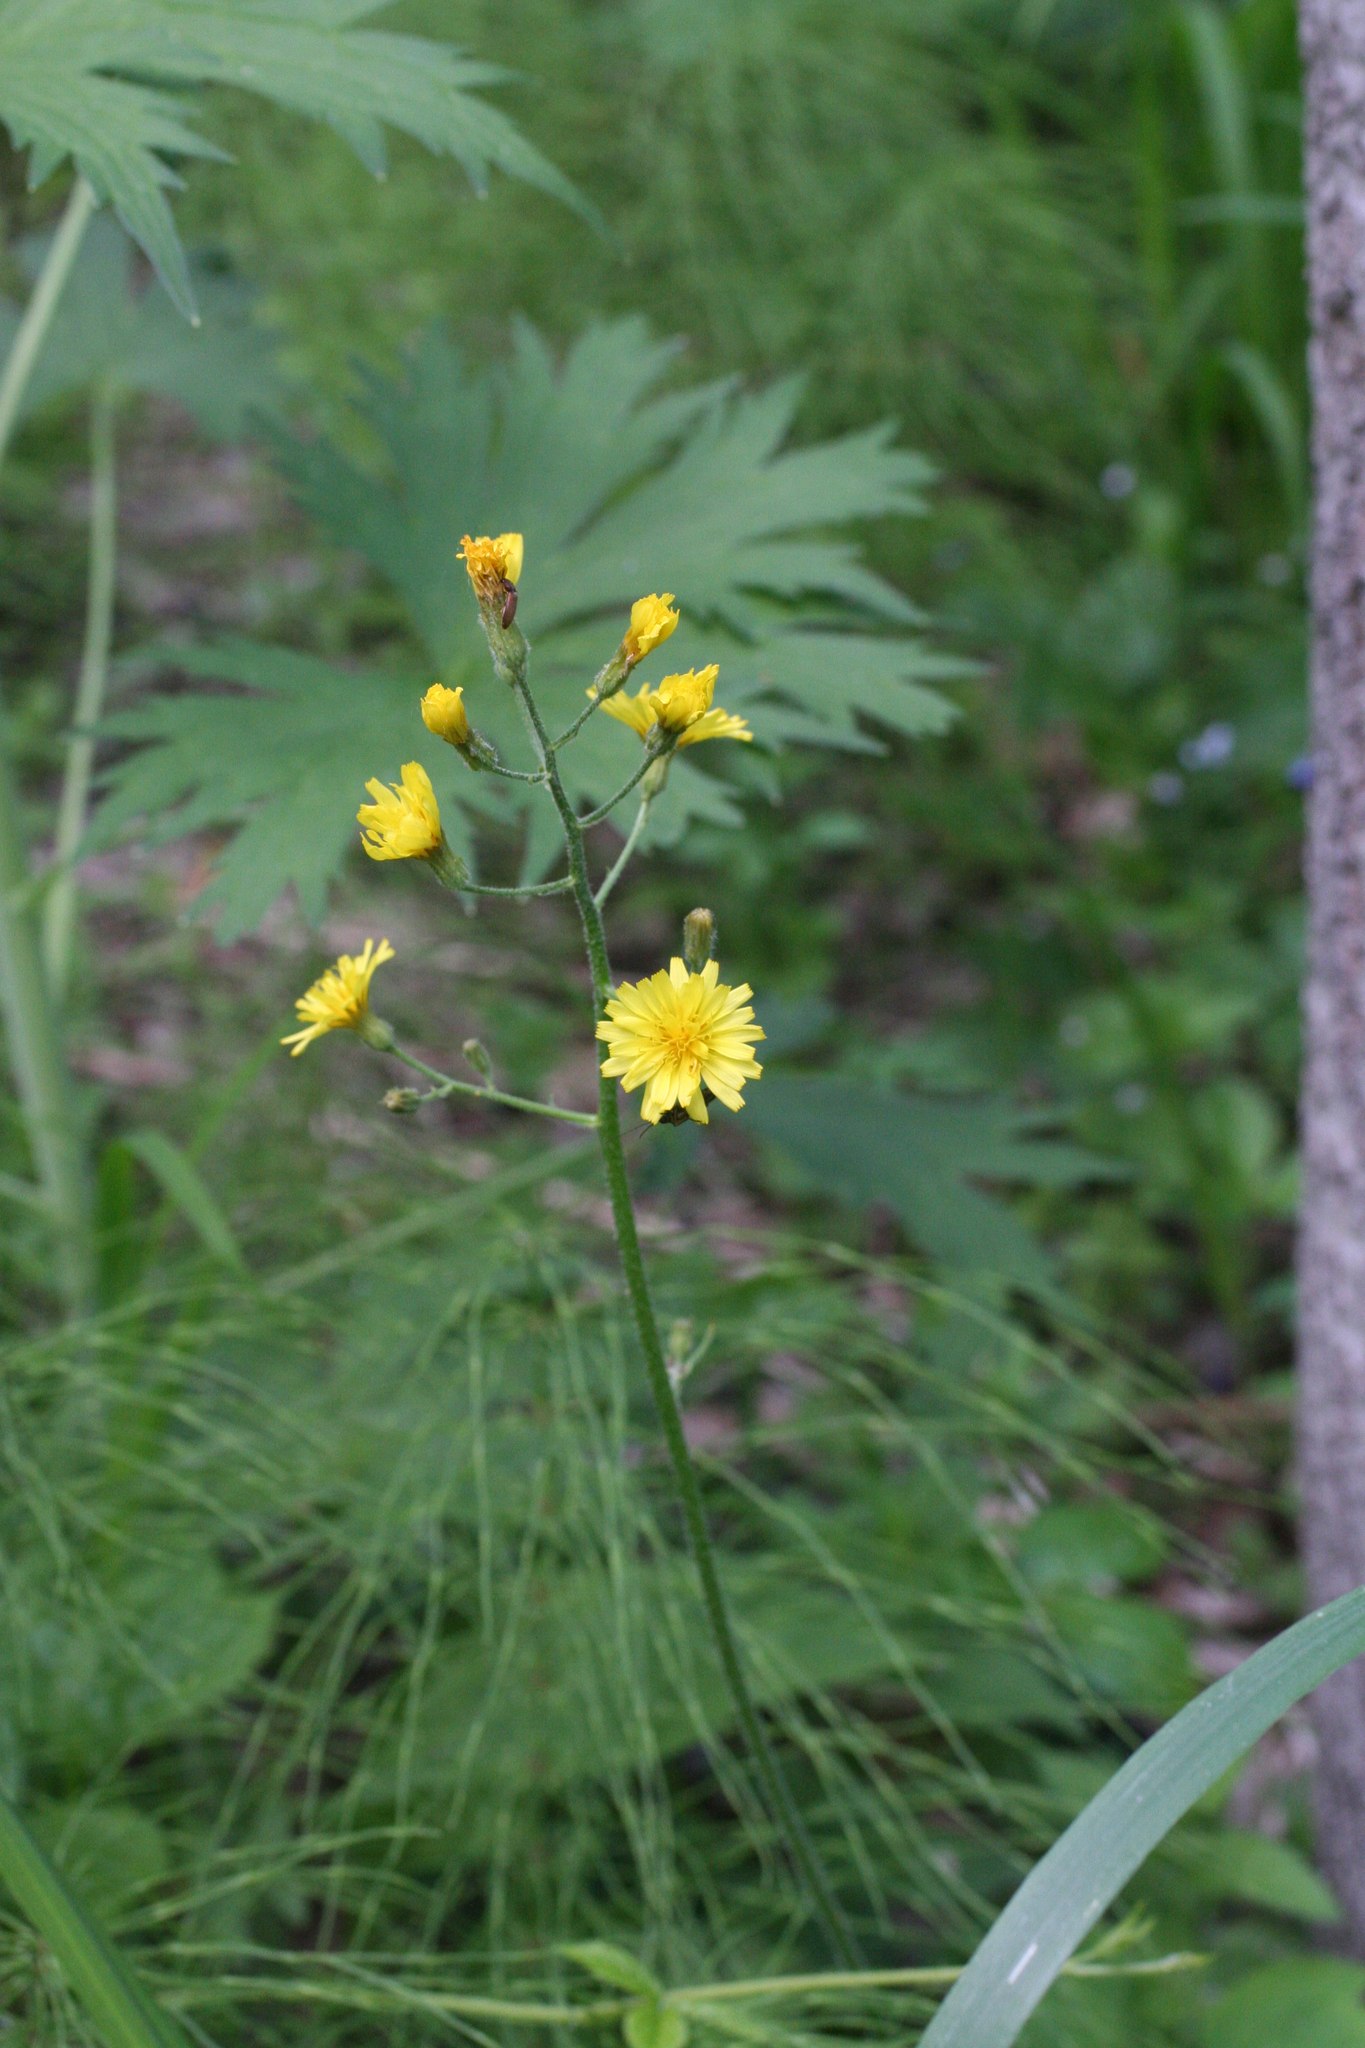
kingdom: Plantae
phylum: Tracheophyta
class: Magnoliopsida
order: Asterales
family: Asteraceae
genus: Crepis
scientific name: Crepis praemorsa
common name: Leafless hawk's-beard
